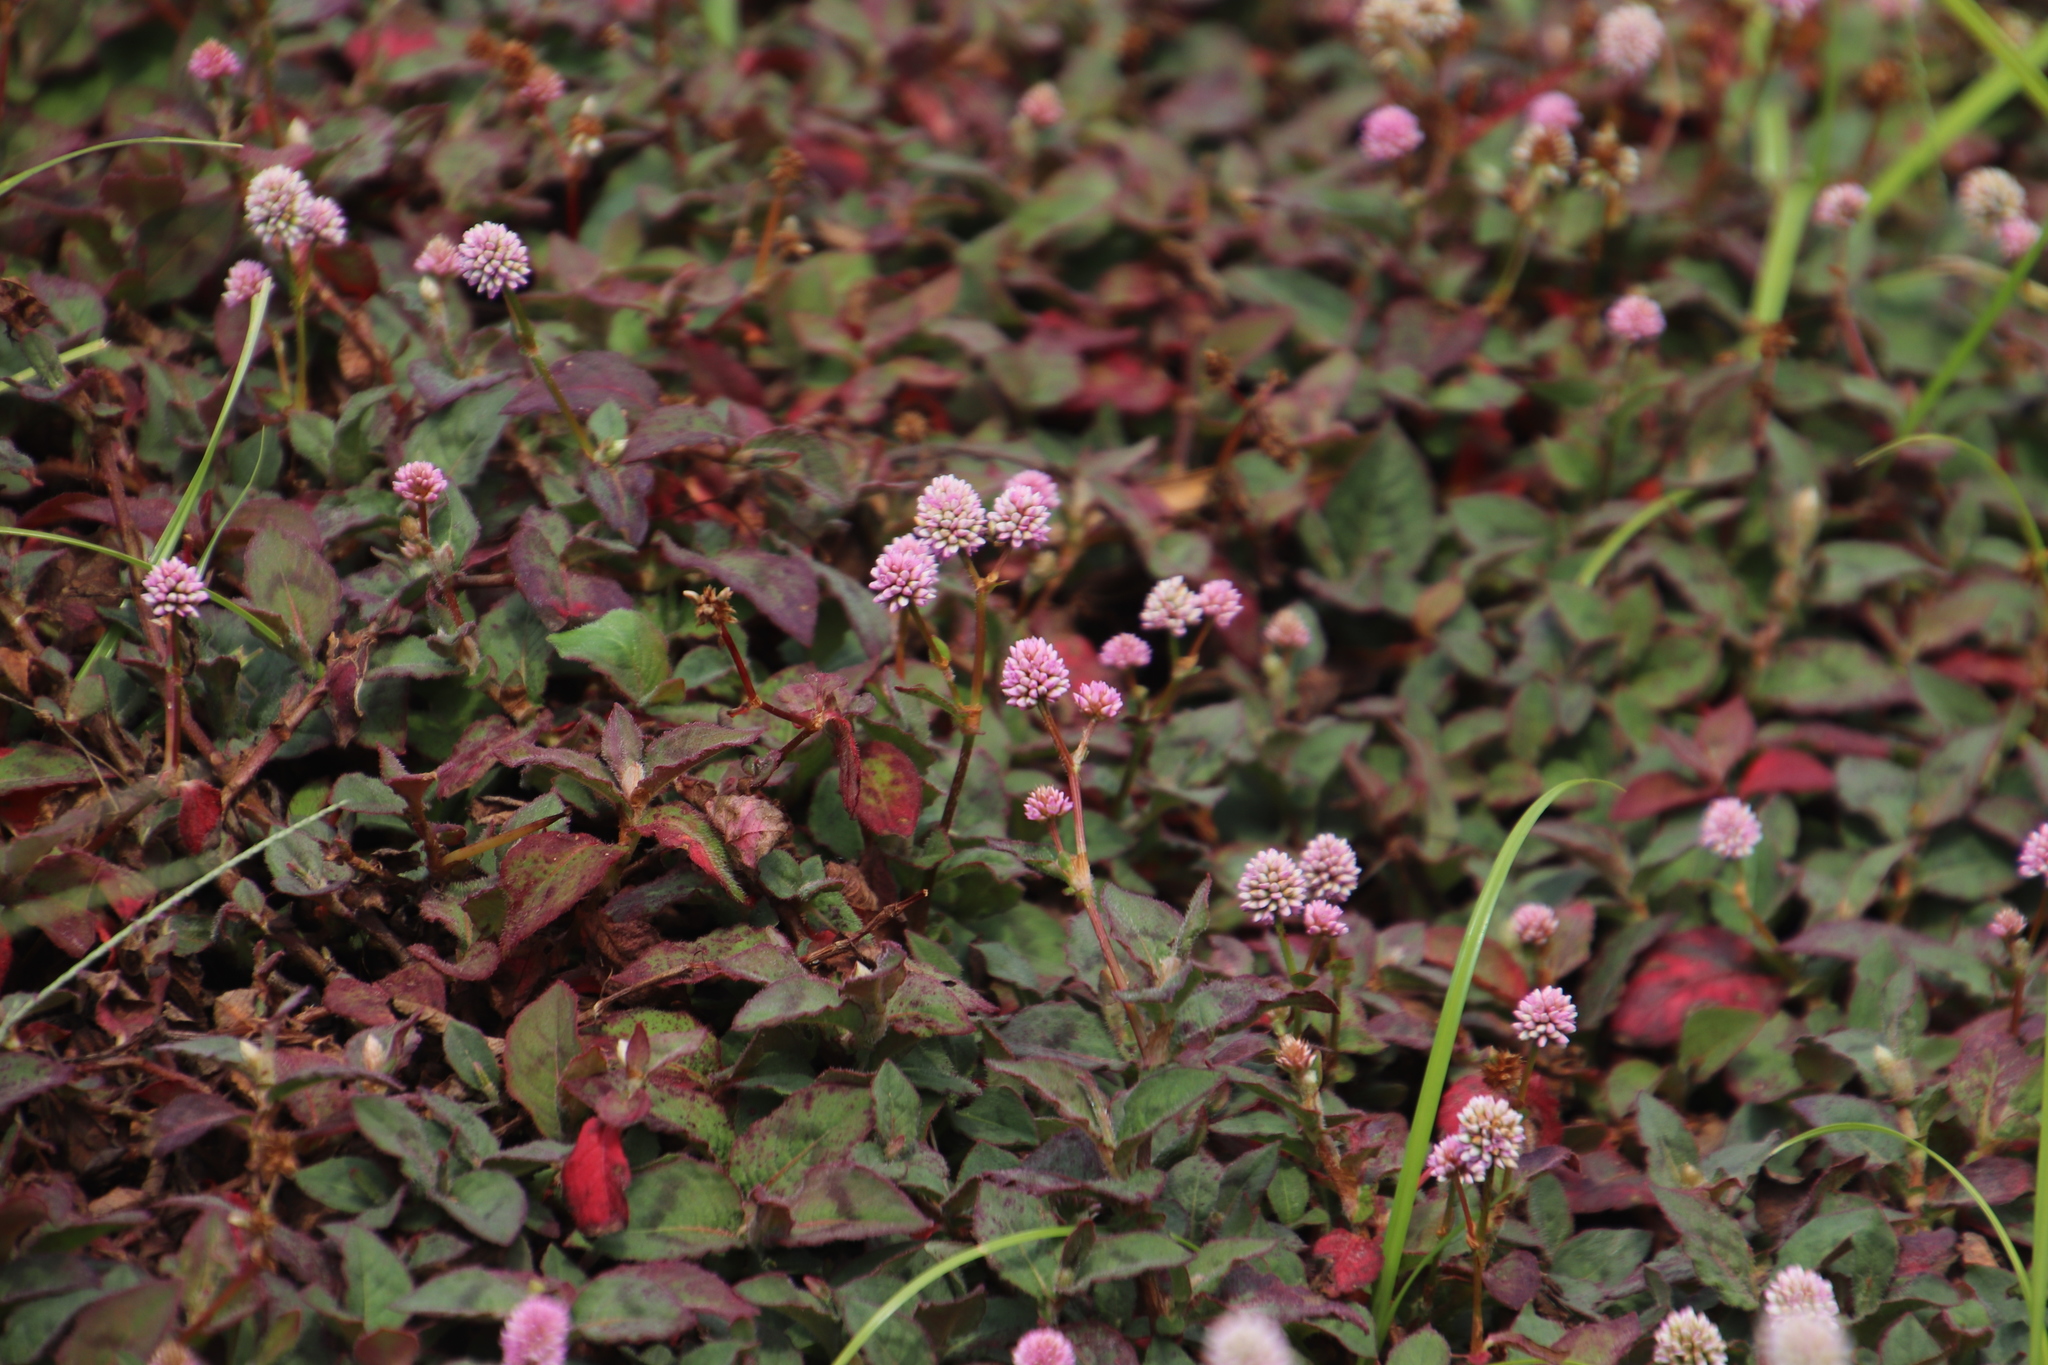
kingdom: Plantae
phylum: Tracheophyta
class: Magnoliopsida
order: Caryophyllales
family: Polygonaceae
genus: Persicaria
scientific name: Persicaria capitata
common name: Pinkhead smartweed
